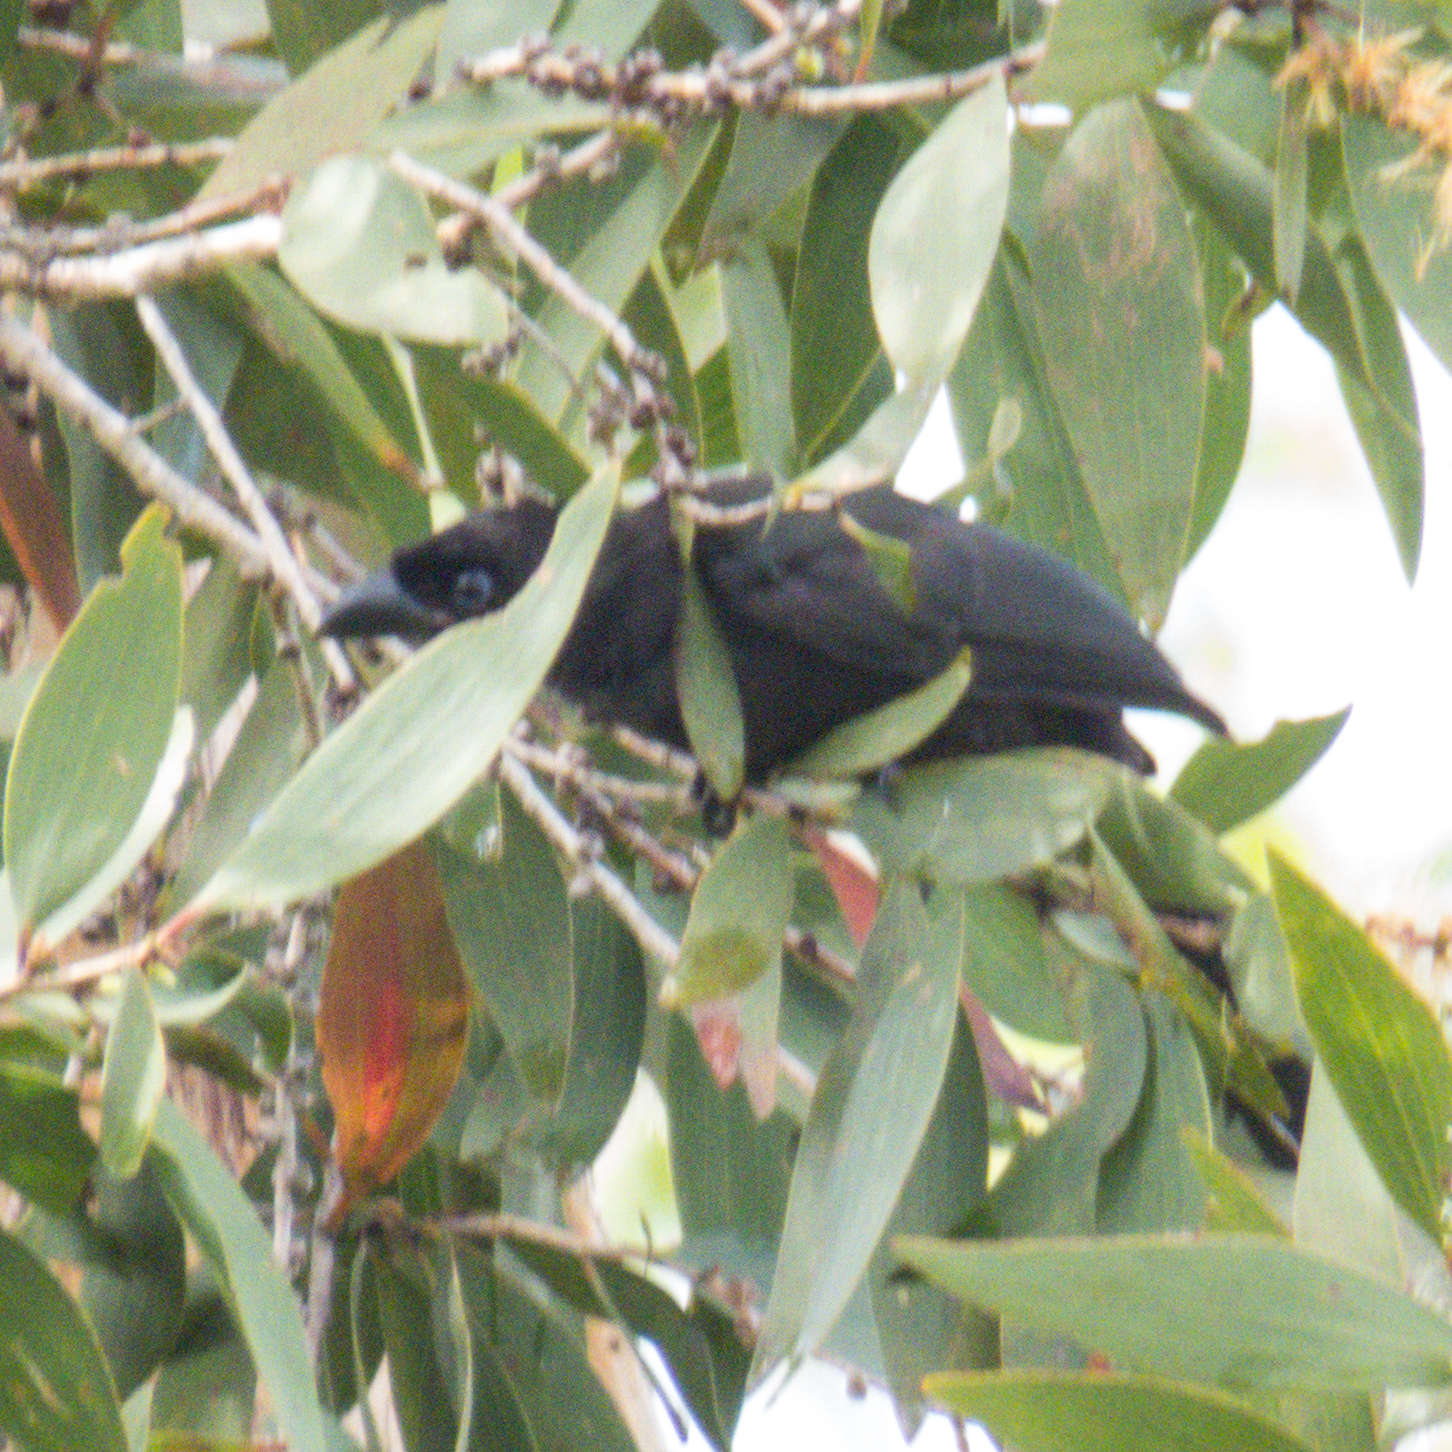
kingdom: Animalia
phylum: Chordata
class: Aves
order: Passeriformes
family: Corvidae
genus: Crypsirina
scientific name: Crypsirina temia
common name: Racket-tailed treepie
